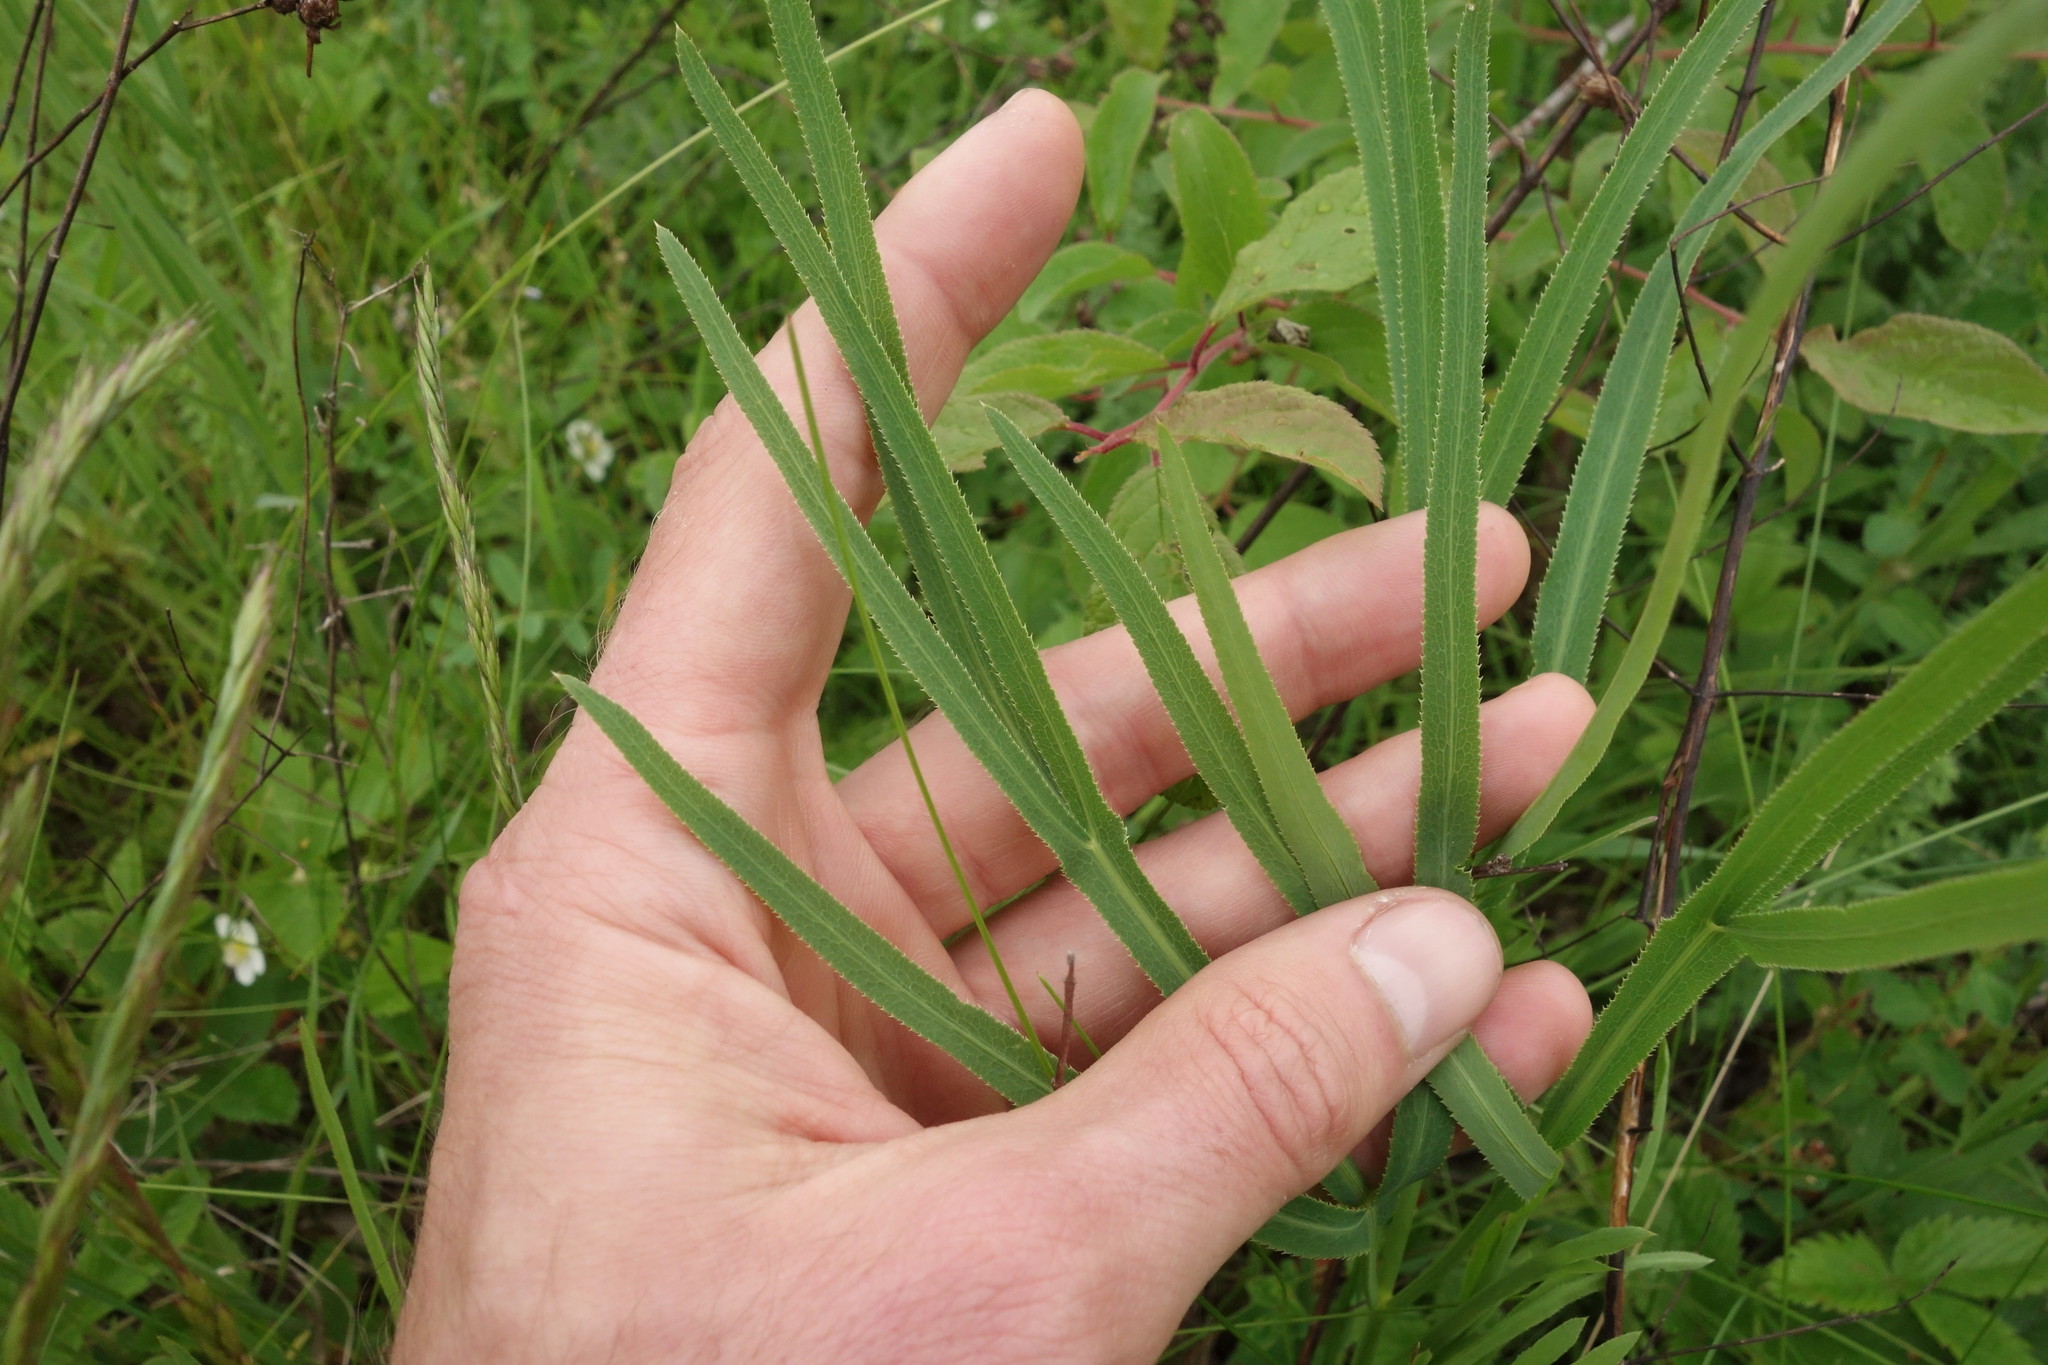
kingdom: Plantae
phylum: Tracheophyta
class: Magnoliopsida
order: Apiales
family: Apiaceae
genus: Falcaria
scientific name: Falcaria vulgaris
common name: Longleaf
